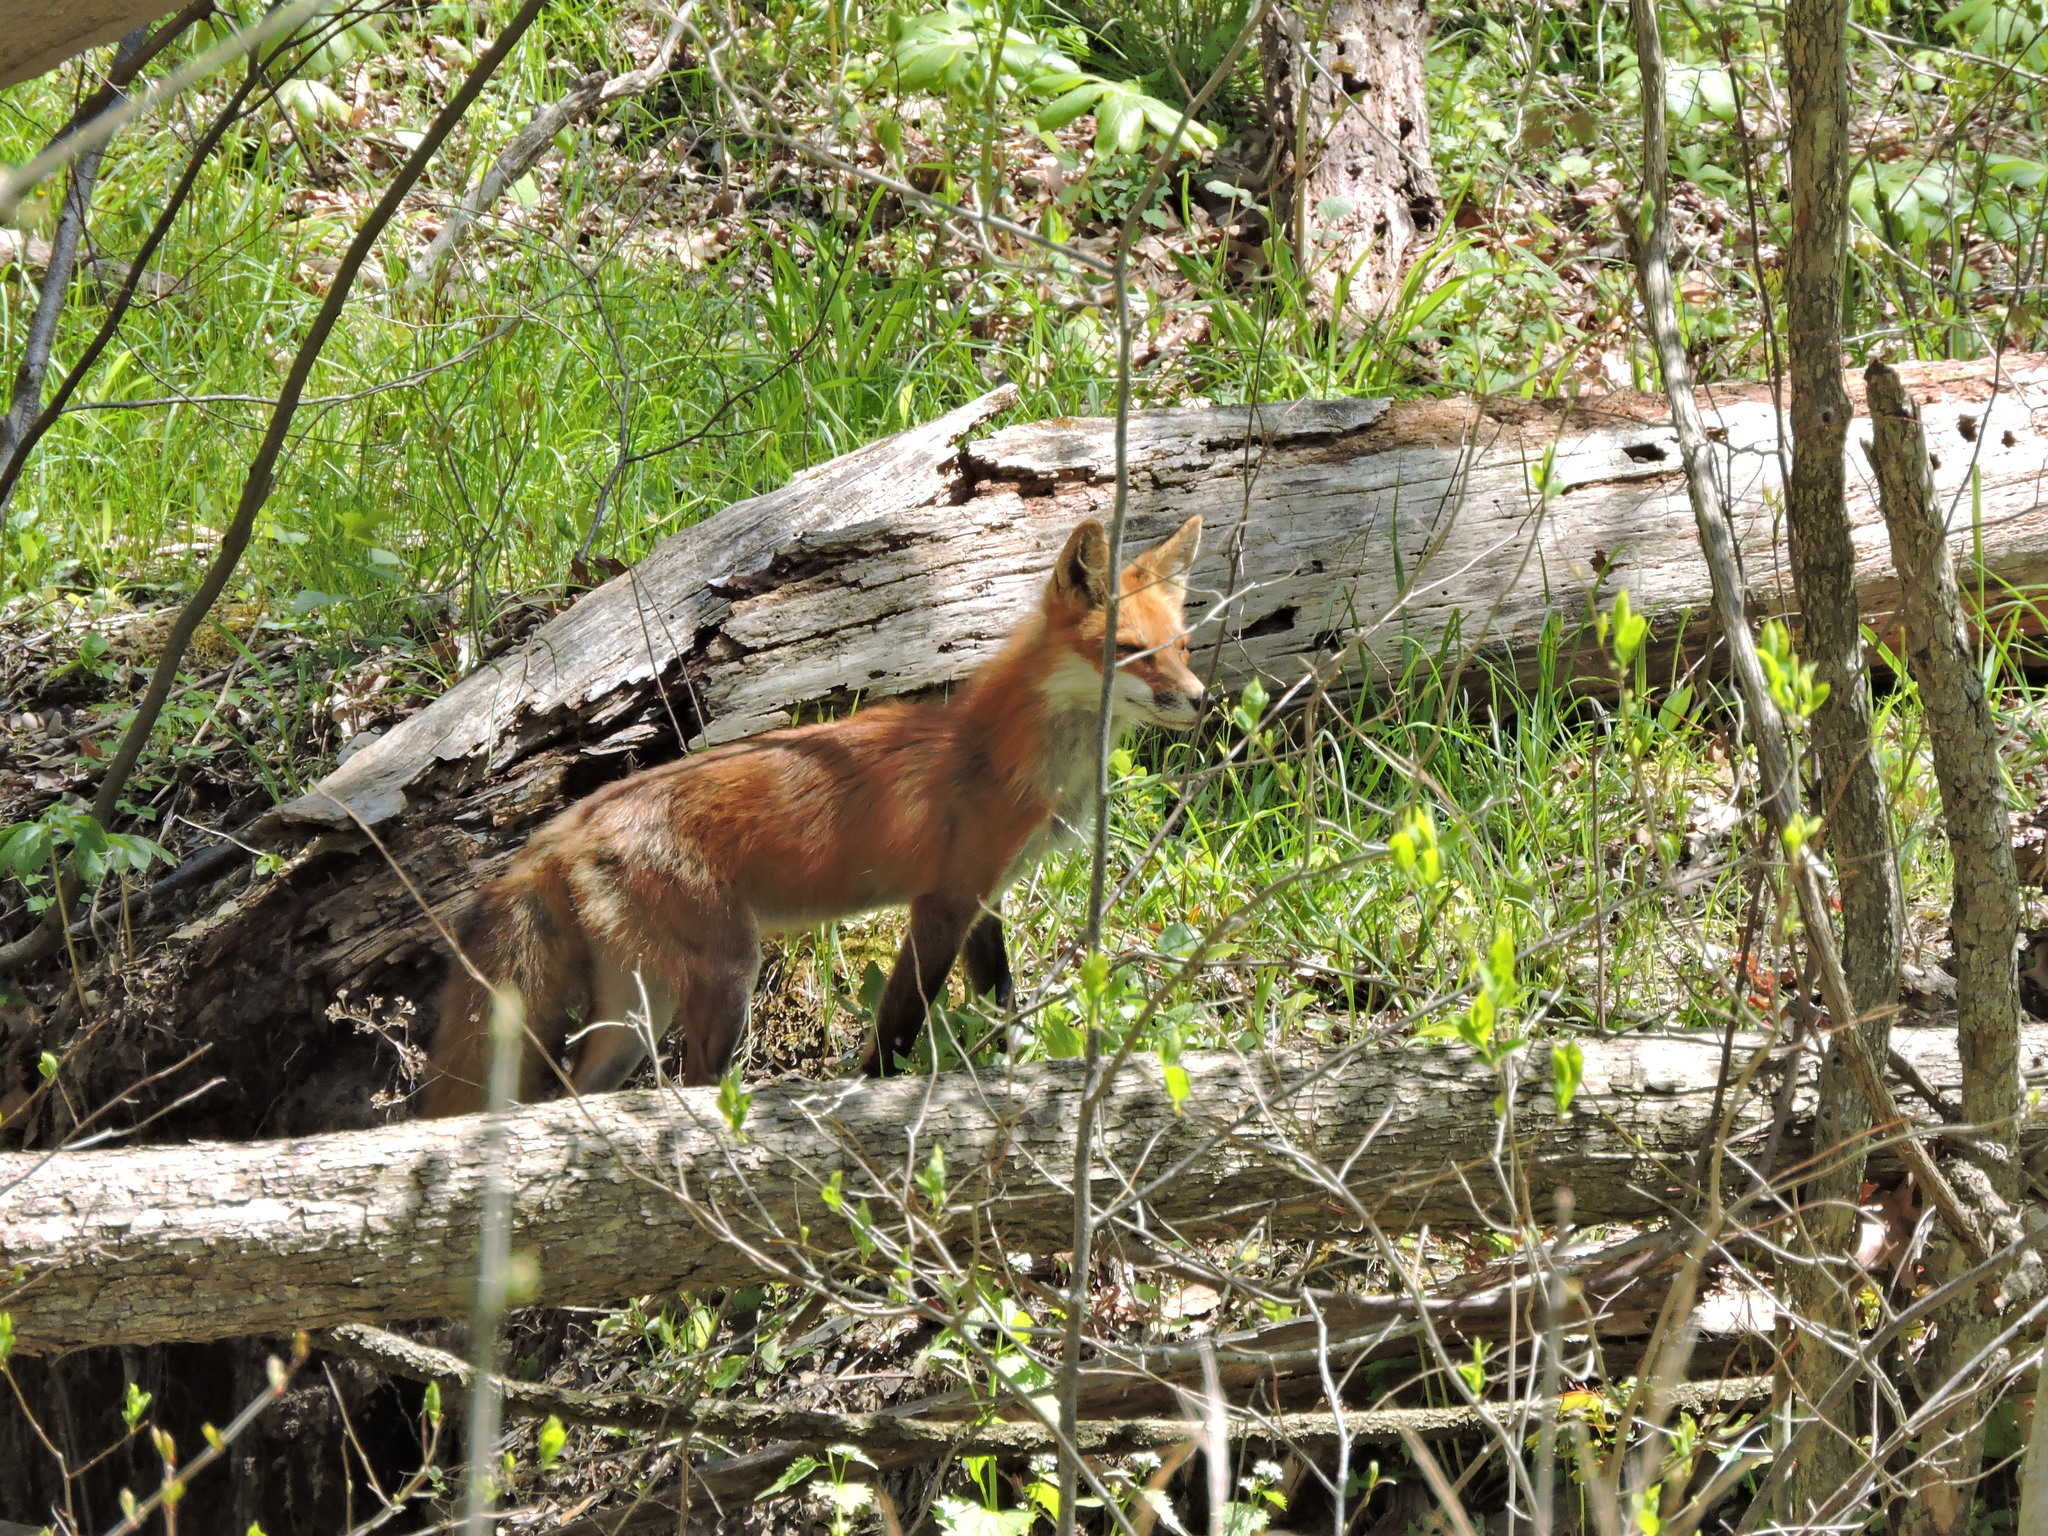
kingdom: Animalia
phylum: Chordata
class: Mammalia
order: Carnivora
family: Canidae
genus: Vulpes
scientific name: Vulpes vulpes
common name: Red fox
